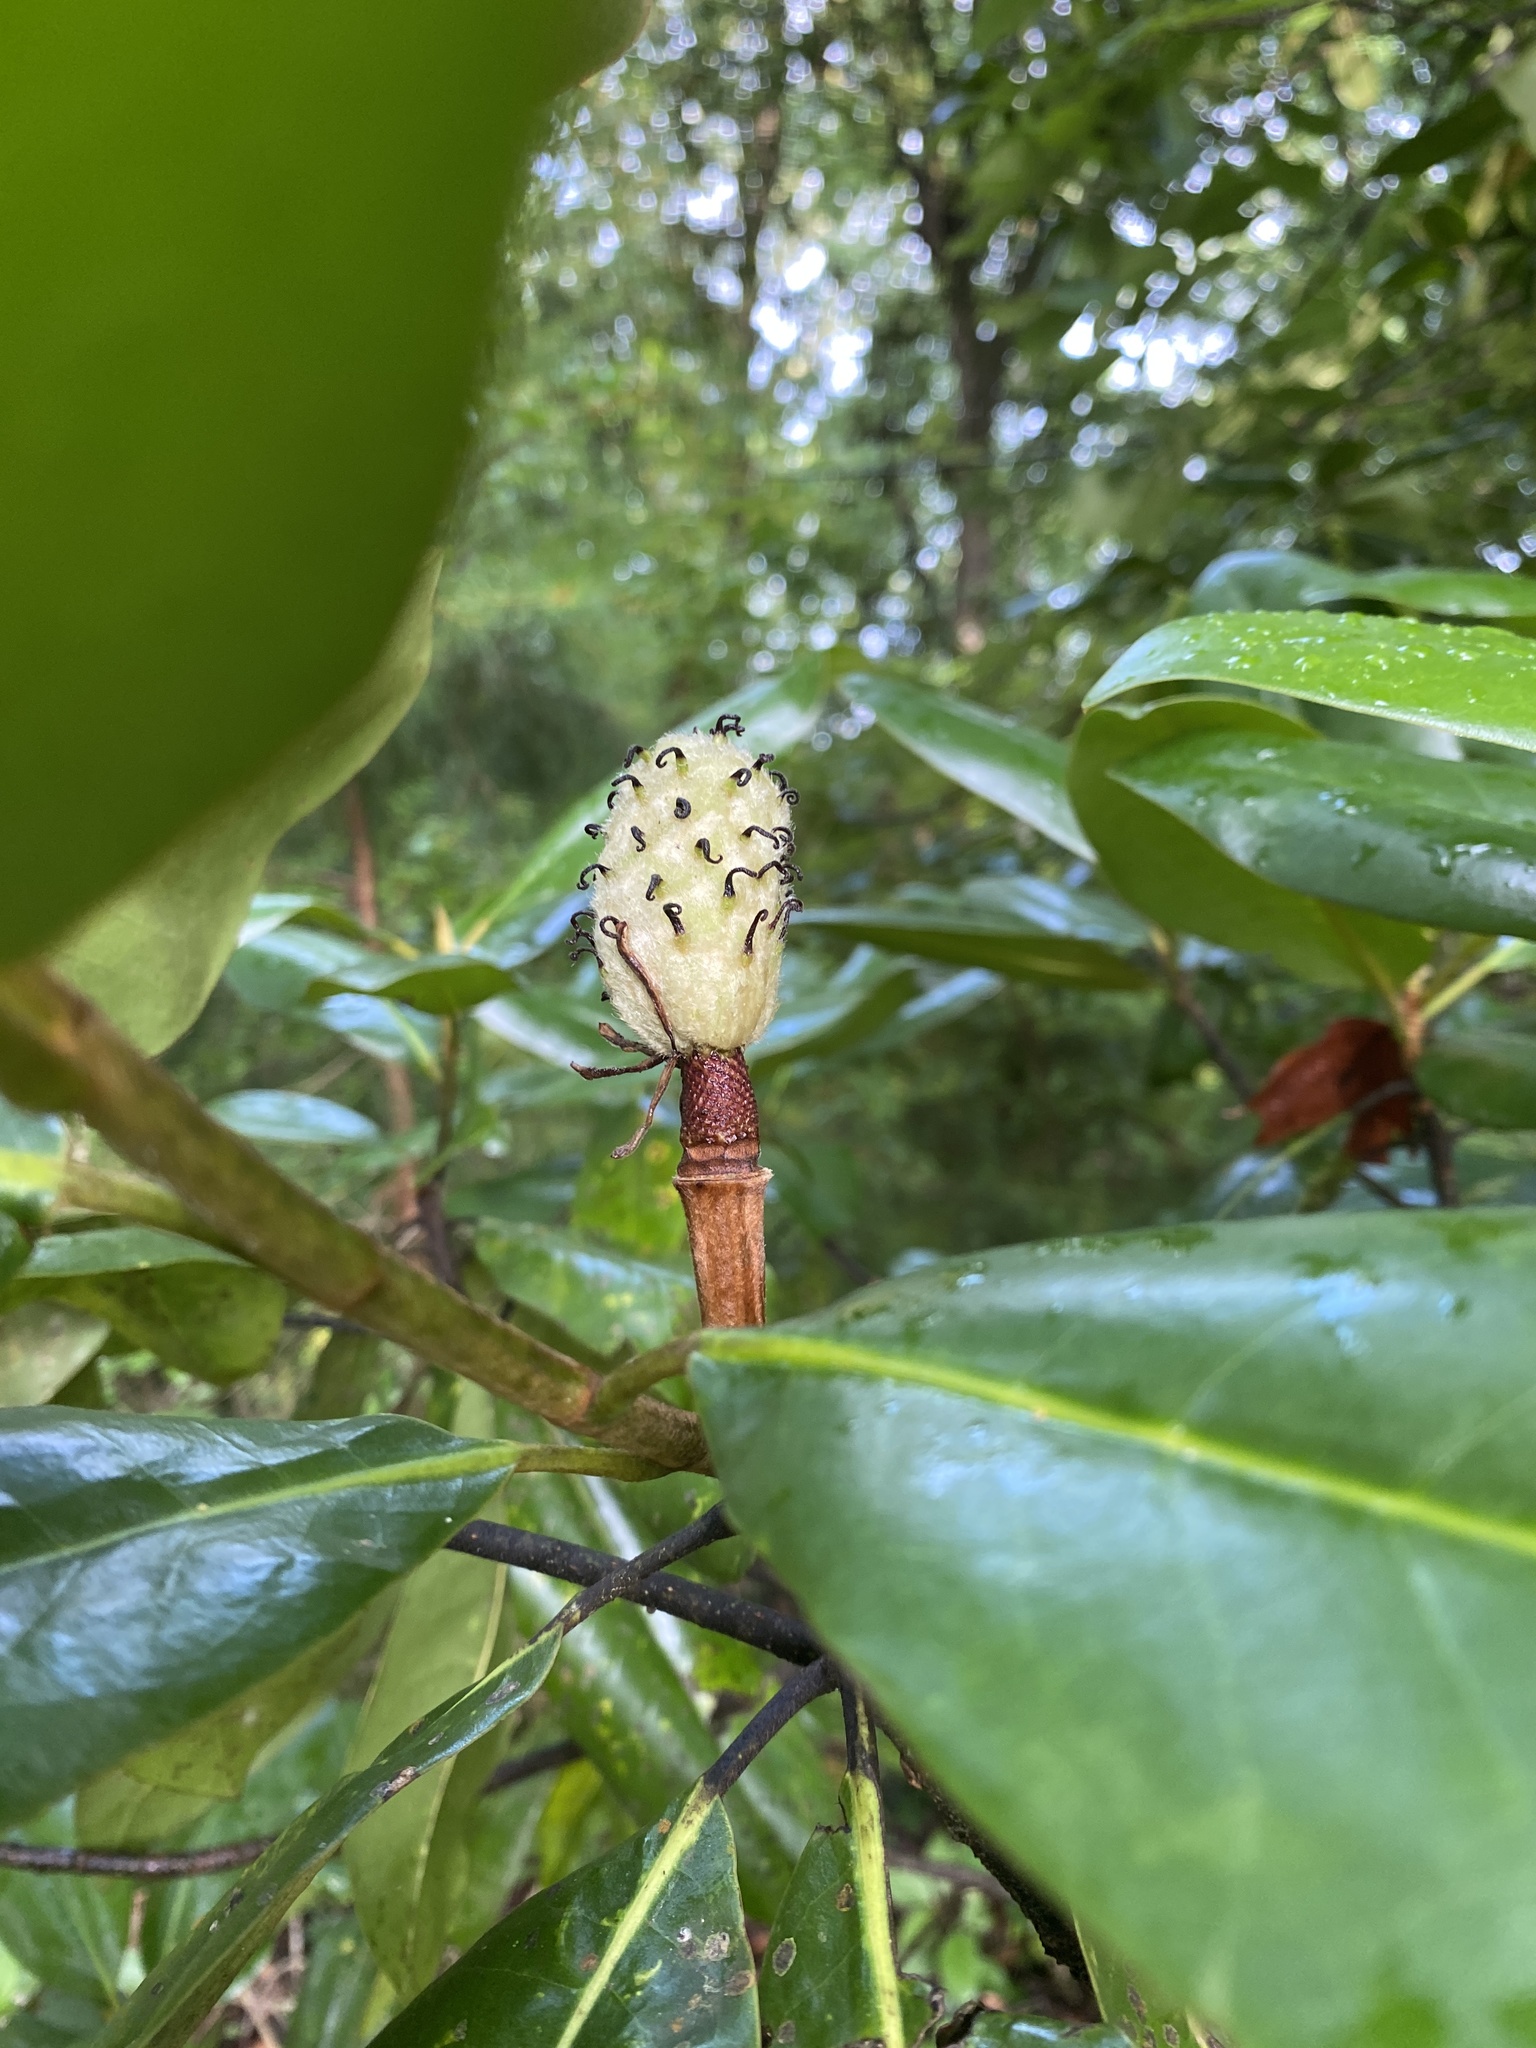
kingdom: Plantae
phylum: Tracheophyta
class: Magnoliopsida
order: Magnoliales
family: Magnoliaceae
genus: Magnolia
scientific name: Magnolia grandiflora
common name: Southern magnolia
